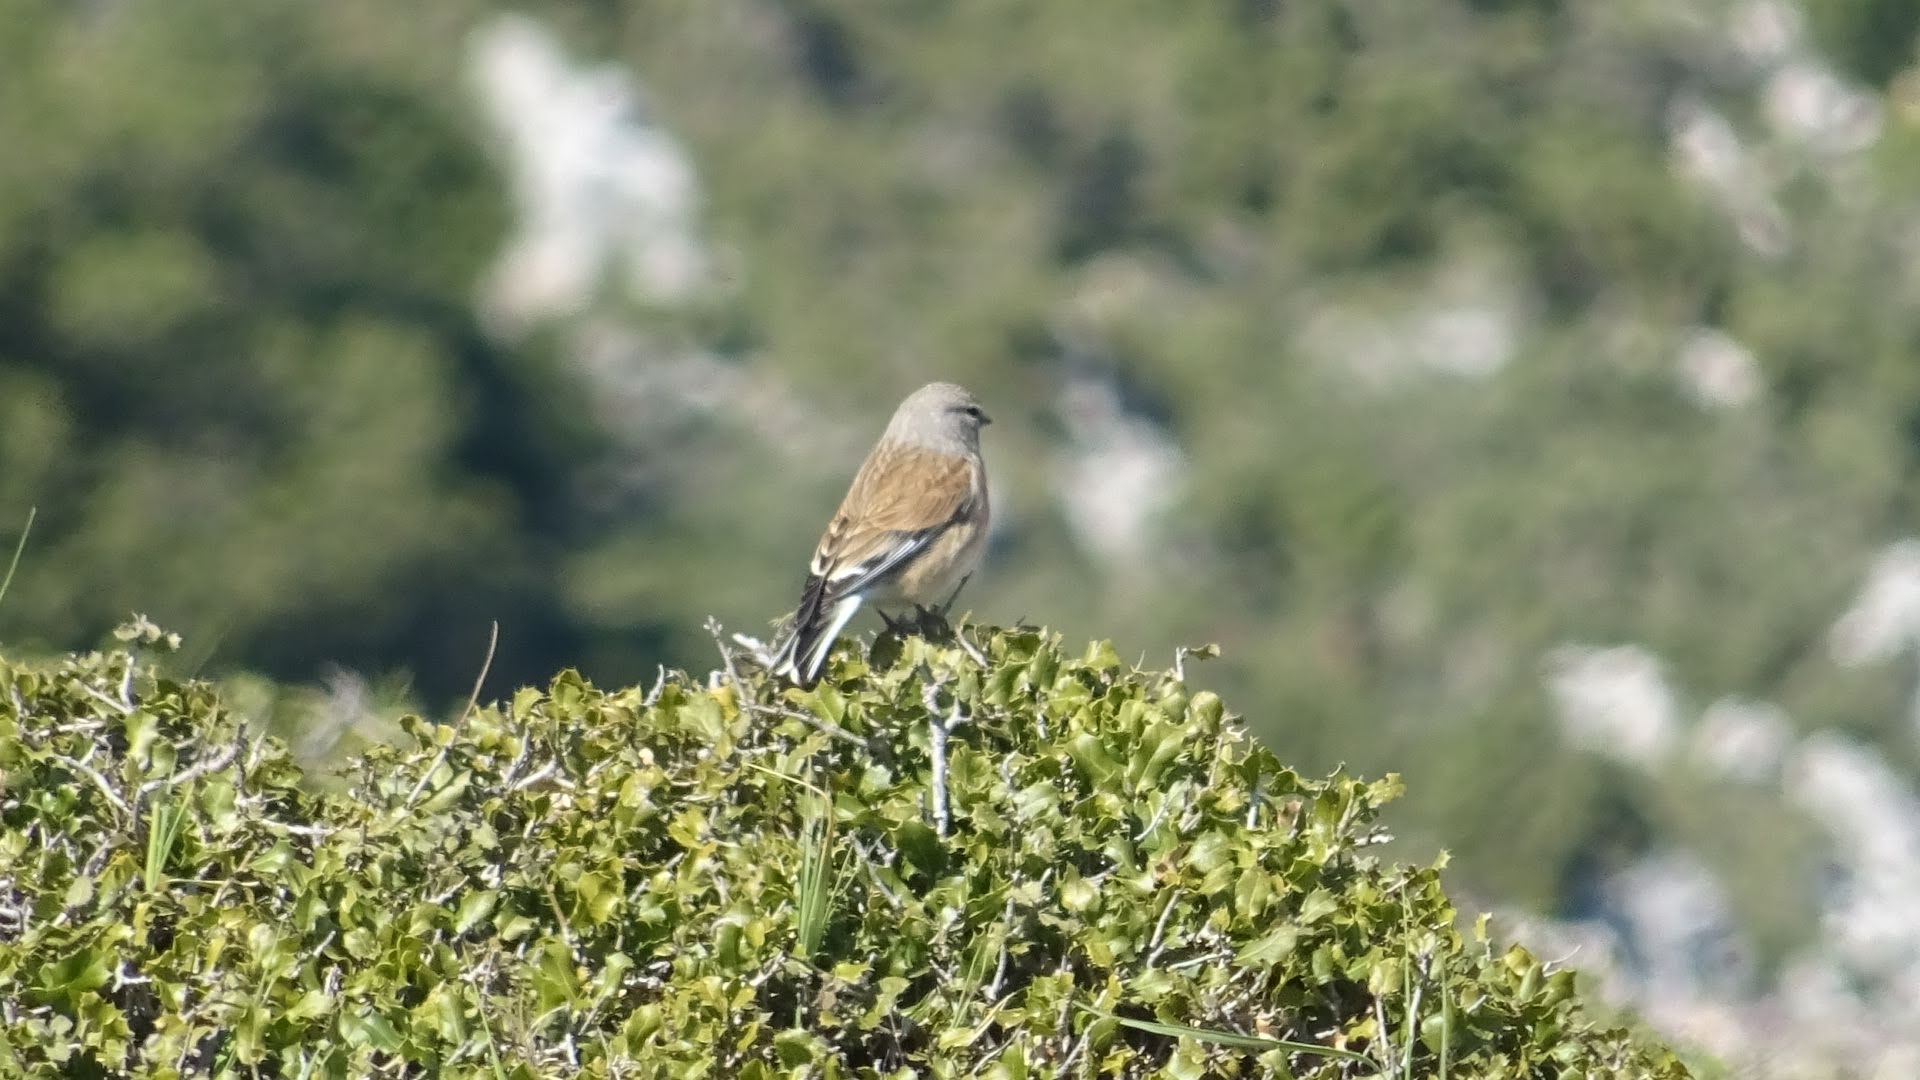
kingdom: Animalia
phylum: Chordata
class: Aves
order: Passeriformes
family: Fringillidae
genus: Linaria
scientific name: Linaria cannabina
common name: Common linnet
